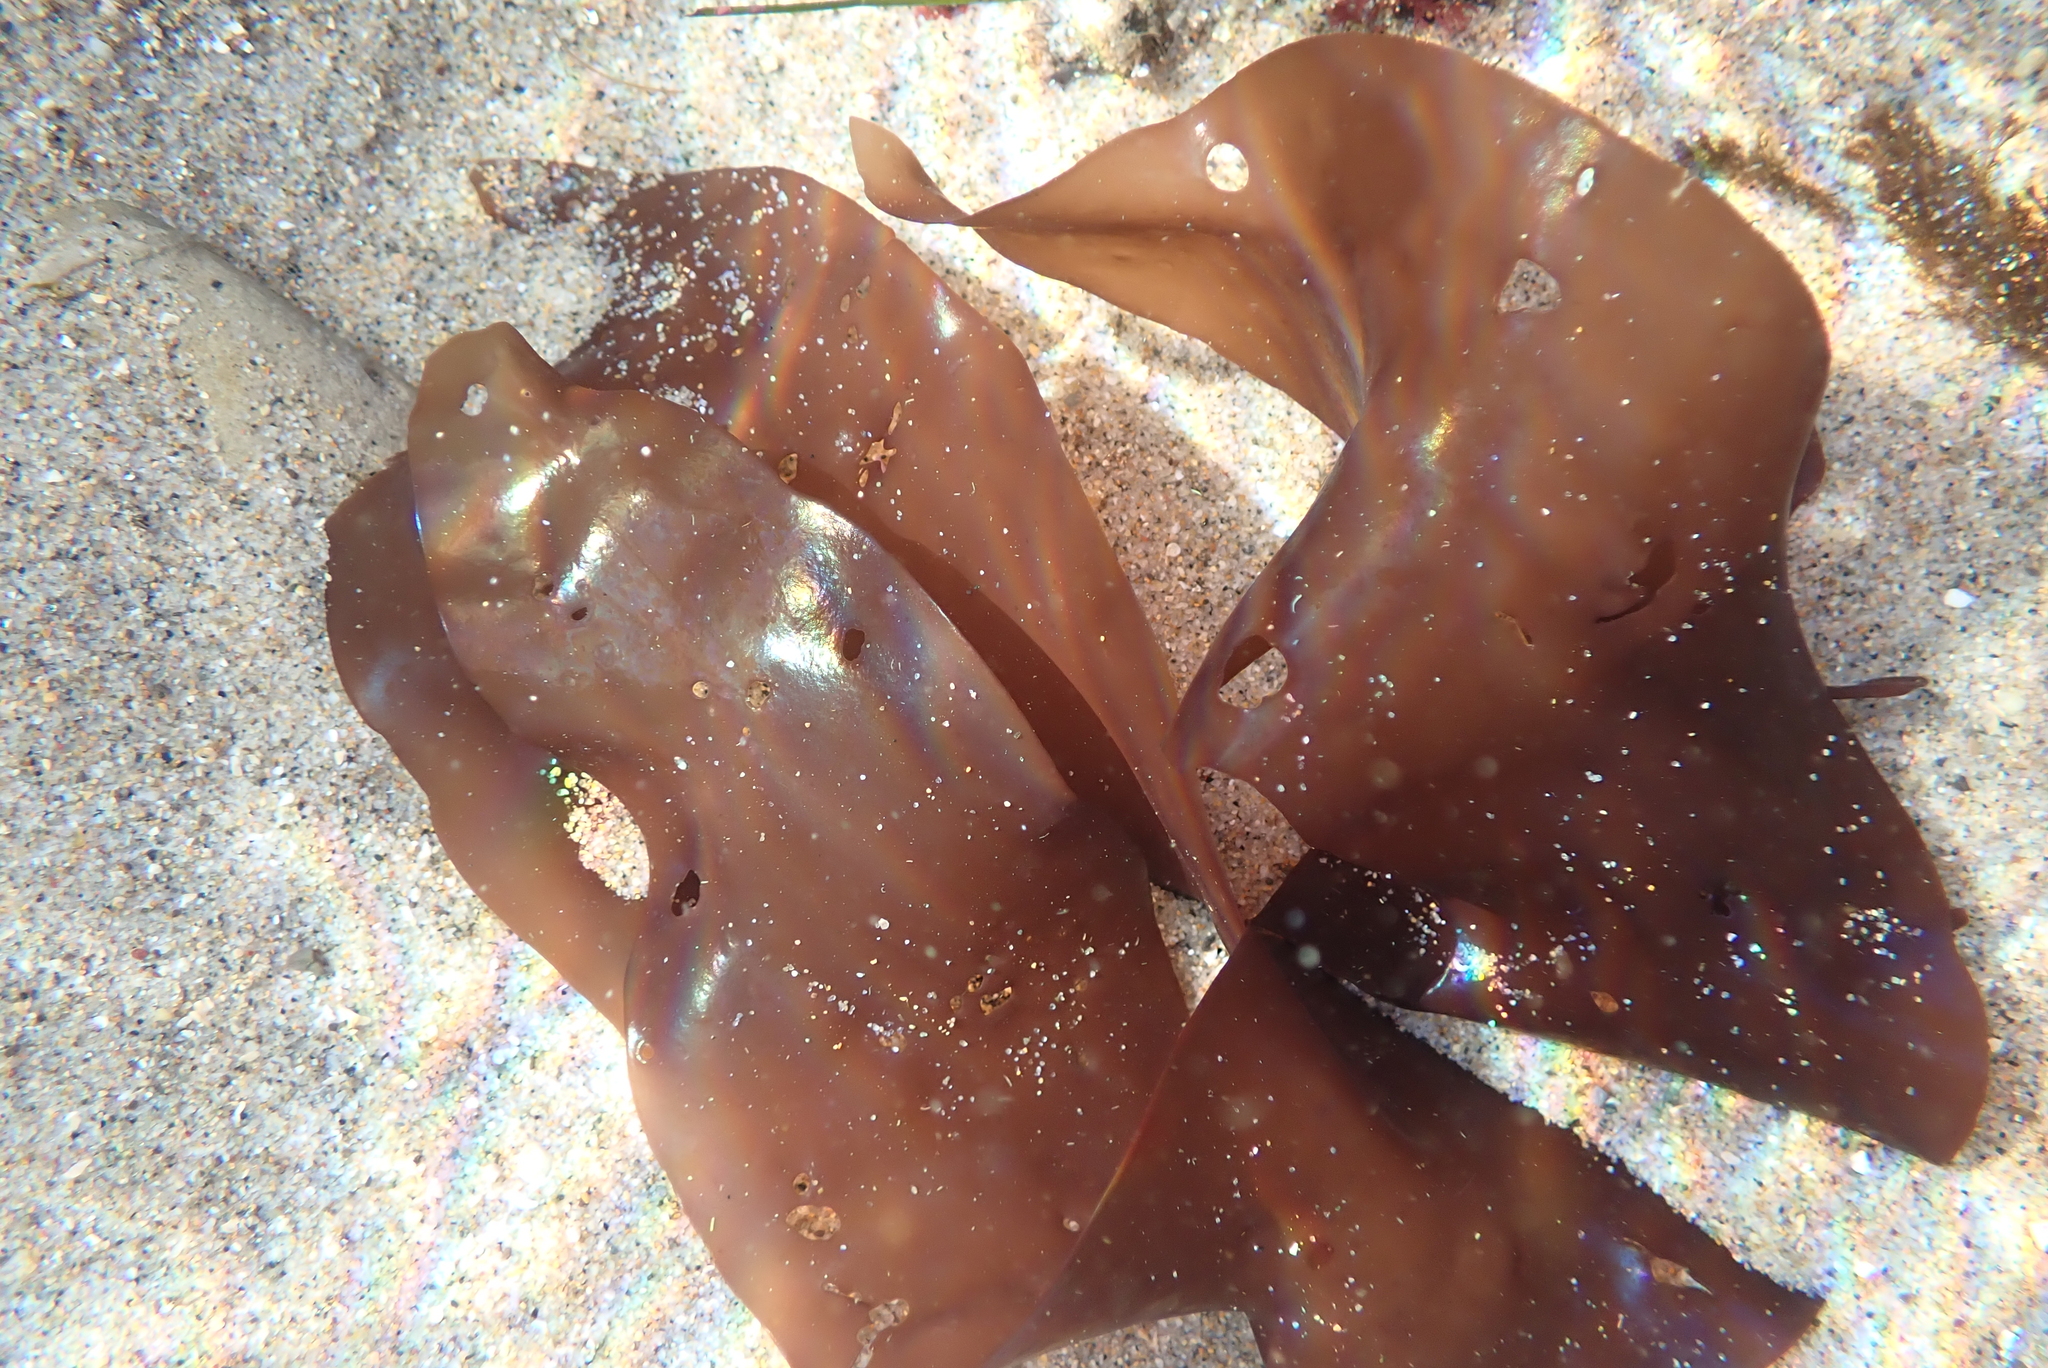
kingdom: Plantae
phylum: Rhodophyta
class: Florideophyceae
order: Gigartinales
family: Gigartinaceae
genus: Mazzaella
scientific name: Mazzaella splendens
